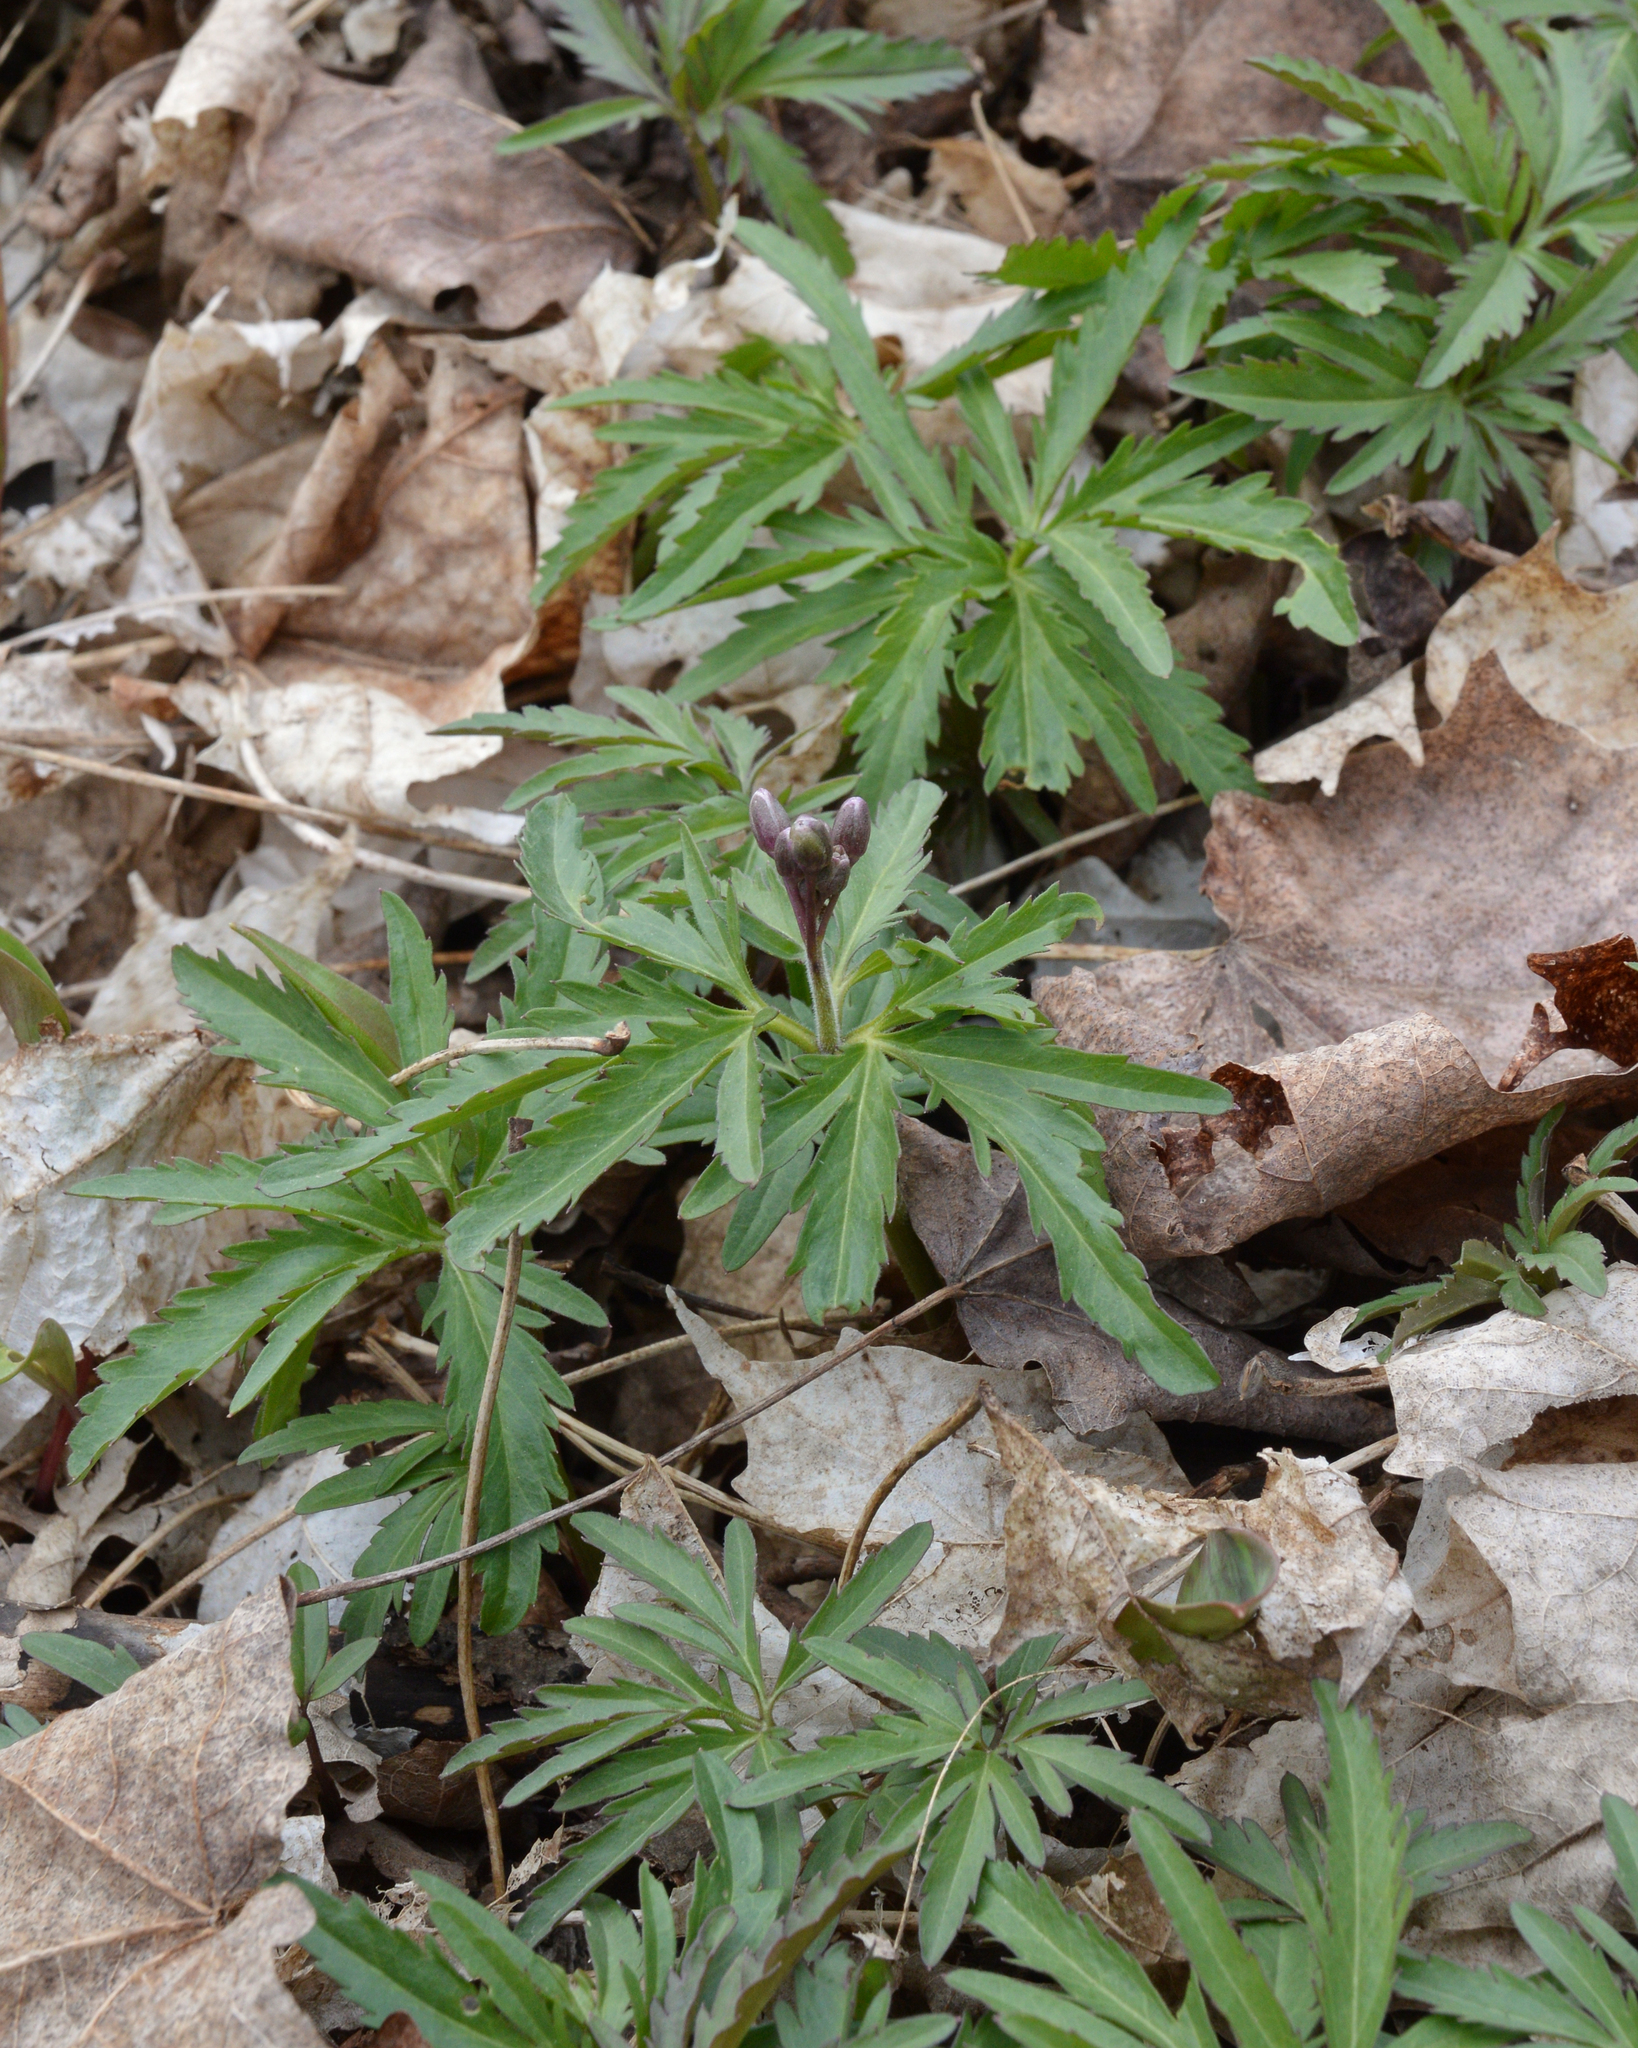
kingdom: Plantae
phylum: Tracheophyta
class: Magnoliopsida
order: Brassicales
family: Brassicaceae
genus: Cardamine
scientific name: Cardamine concatenata
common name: Cut-leaf toothcup
